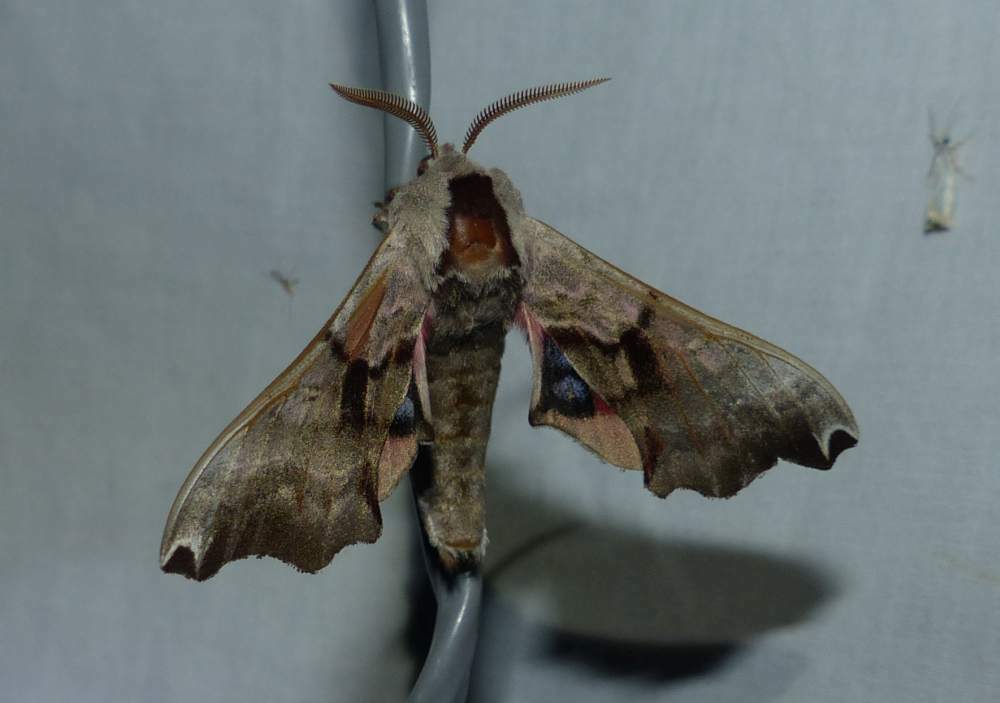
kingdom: Animalia
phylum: Arthropoda
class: Insecta
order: Lepidoptera
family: Sphingidae
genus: Smerinthus
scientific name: Smerinthus jamaicensis
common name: Twin spotted sphinx
